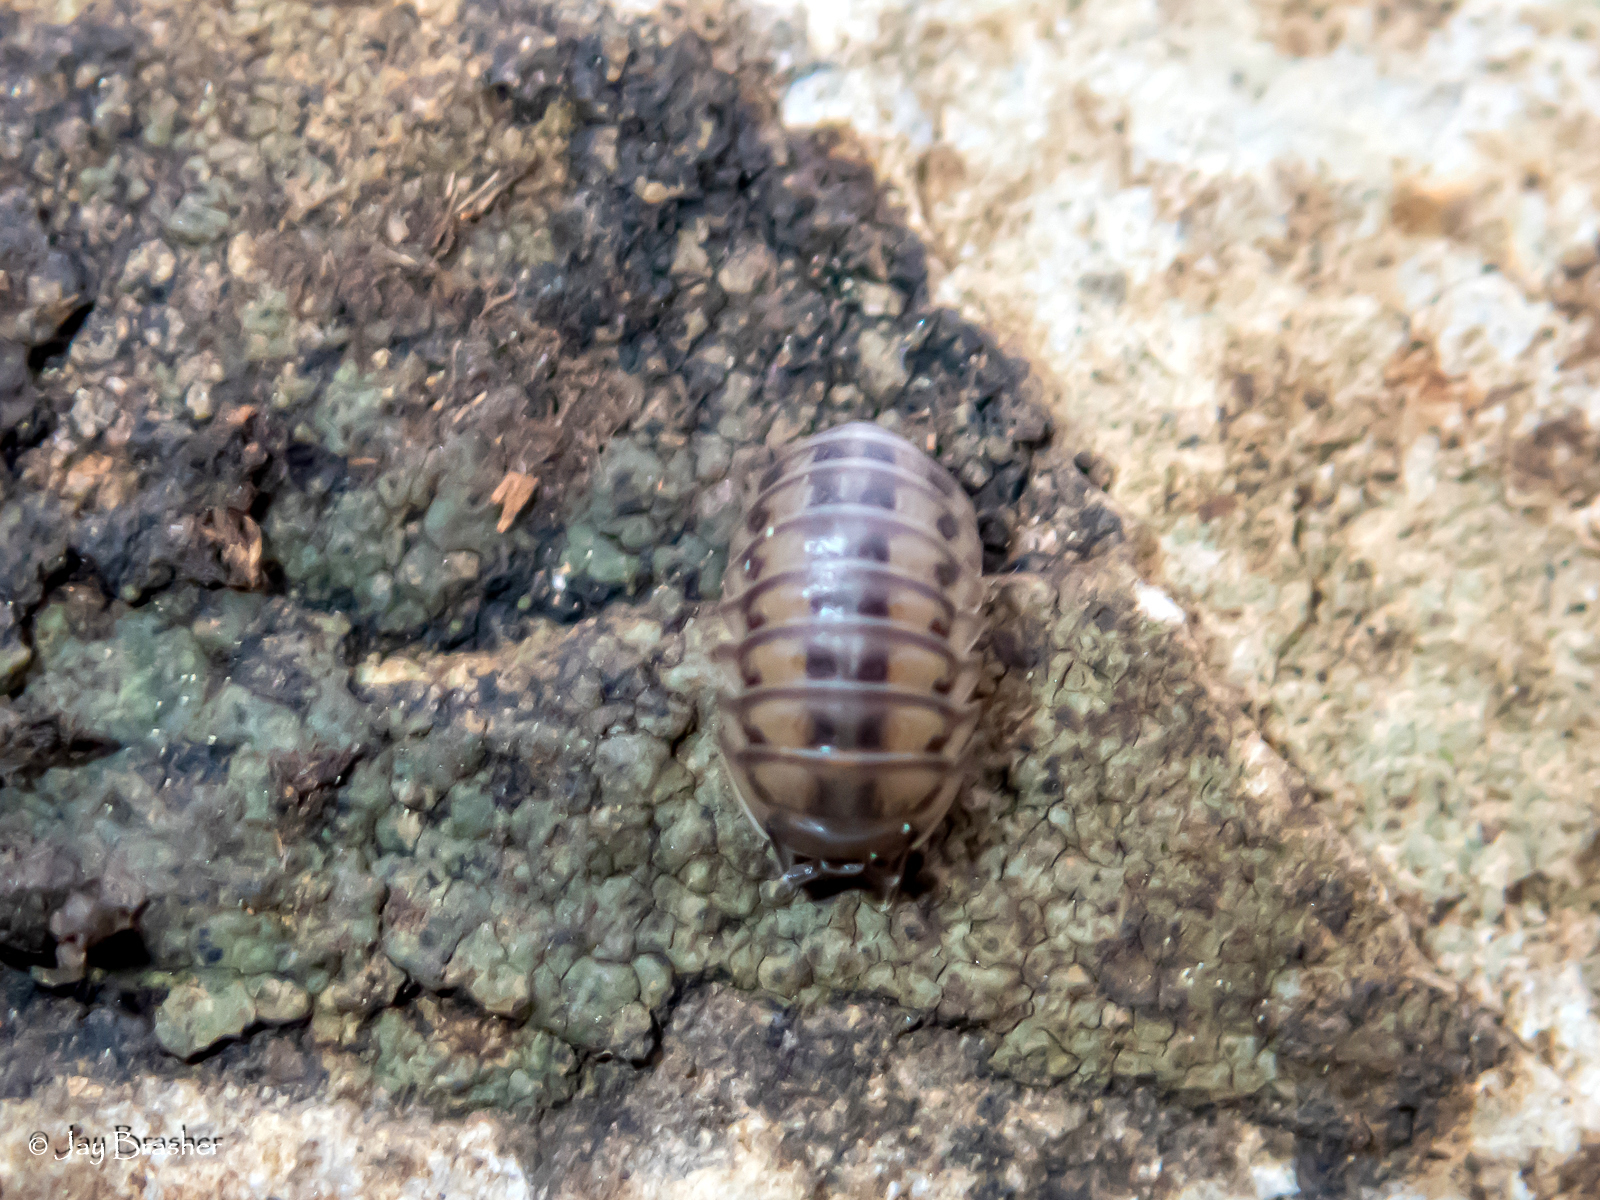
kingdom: Animalia
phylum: Arthropoda
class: Malacostraca
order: Isopoda
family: Armadillidiidae
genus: Armadillidium
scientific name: Armadillidium nasatum
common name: Isopod
